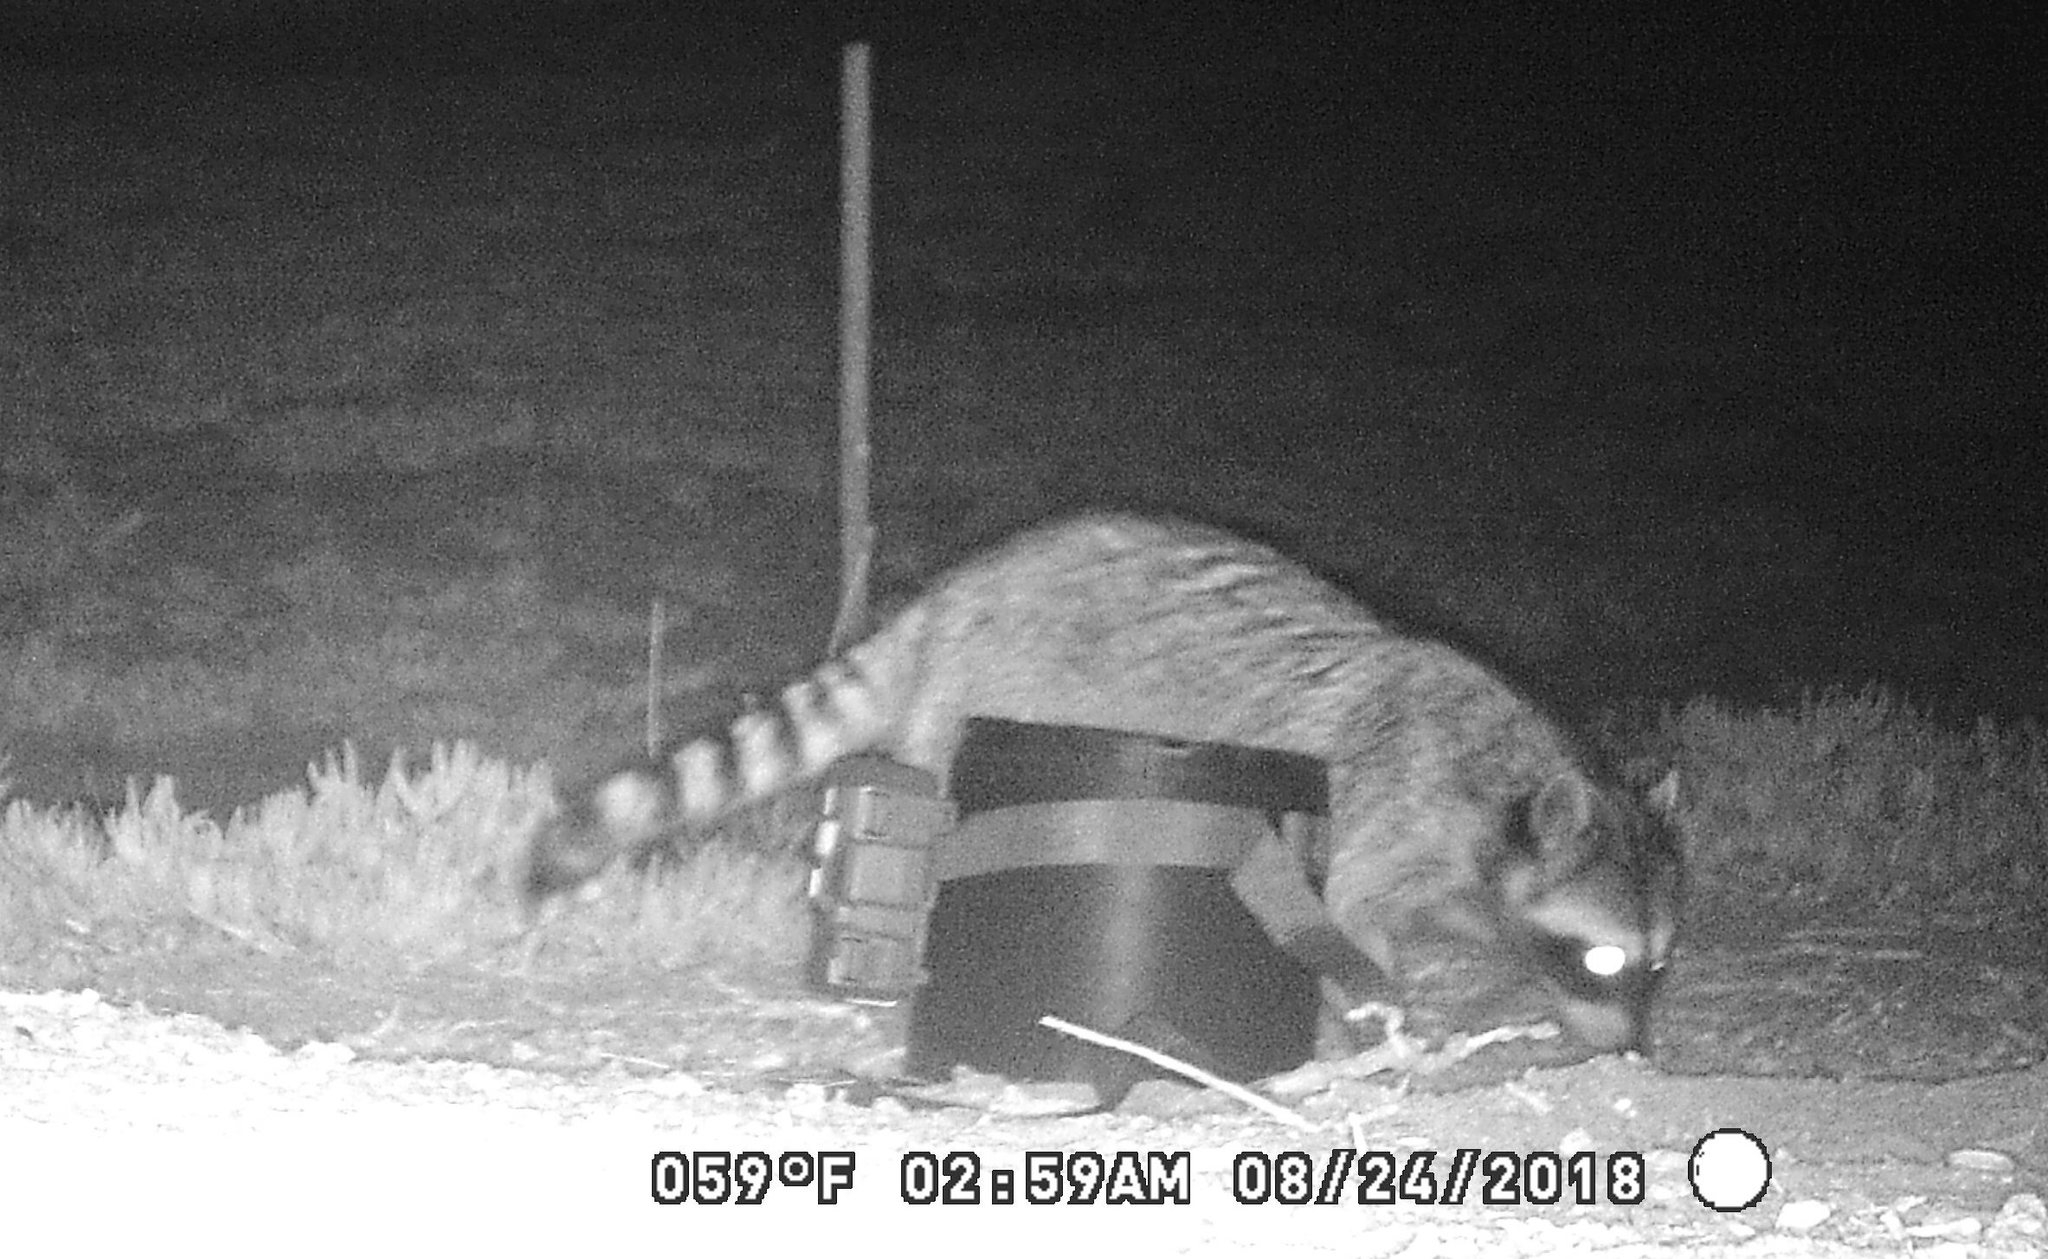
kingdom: Animalia
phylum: Chordata
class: Mammalia
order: Carnivora
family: Procyonidae
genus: Procyon
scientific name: Procyon lotor
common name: Raccoon
